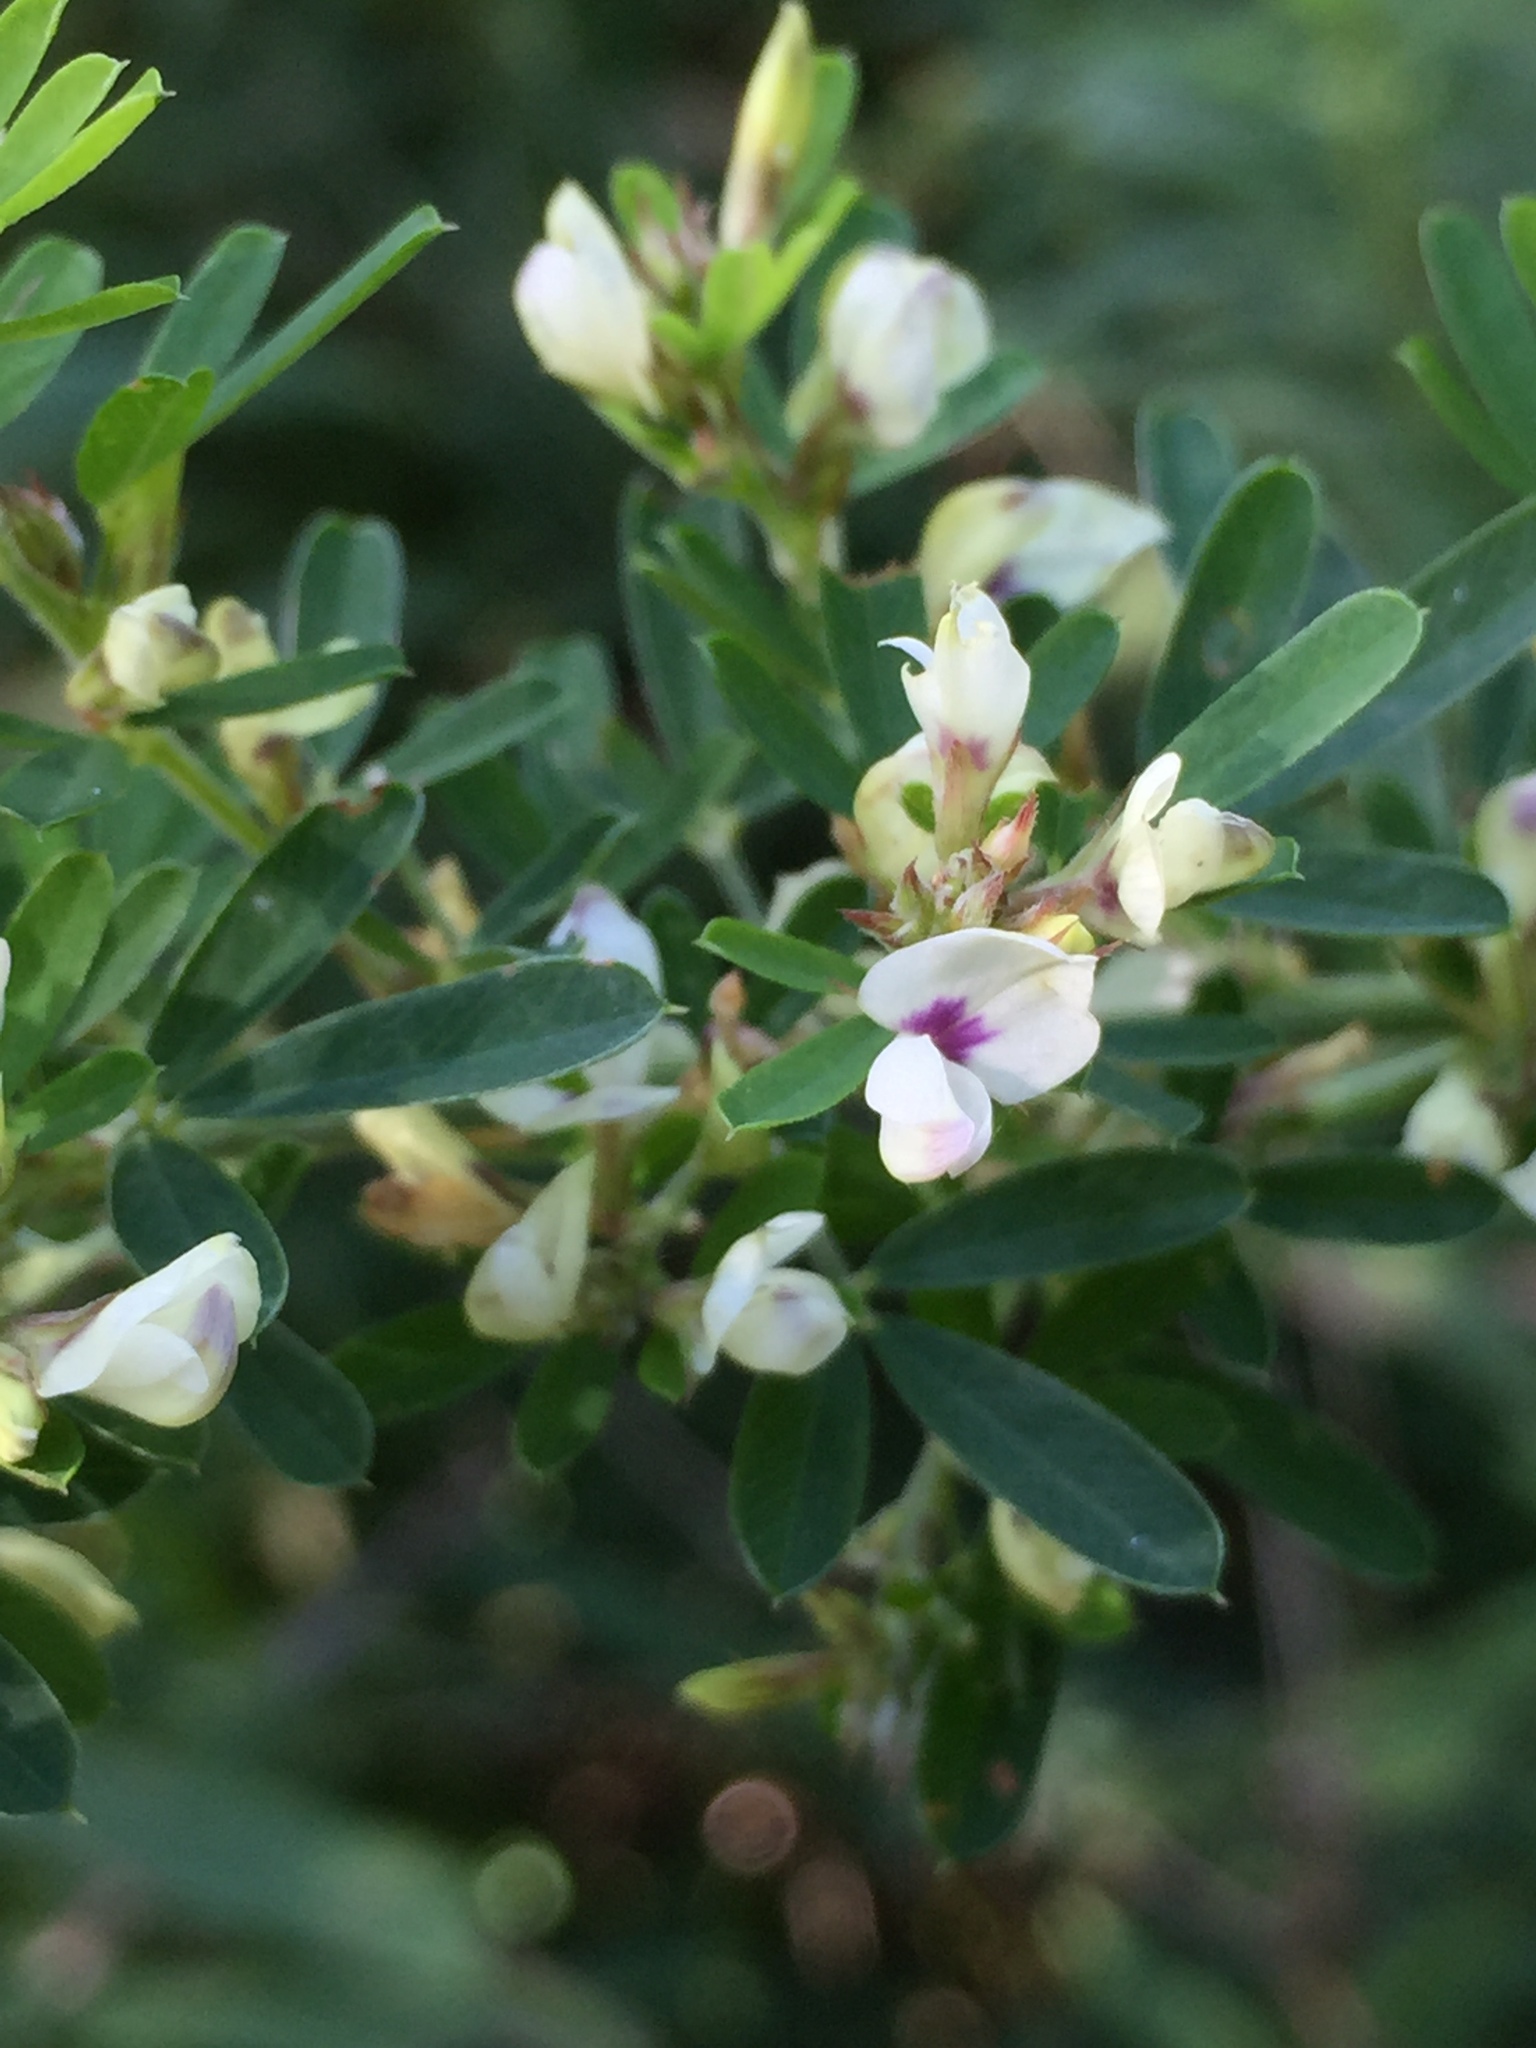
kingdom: Plantae
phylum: Tracheophyta
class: Magnoliopsida
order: Fabales
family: Fabaceae
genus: Lespedeza
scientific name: Lespedeza cuneata
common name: Chinese bush-clover
